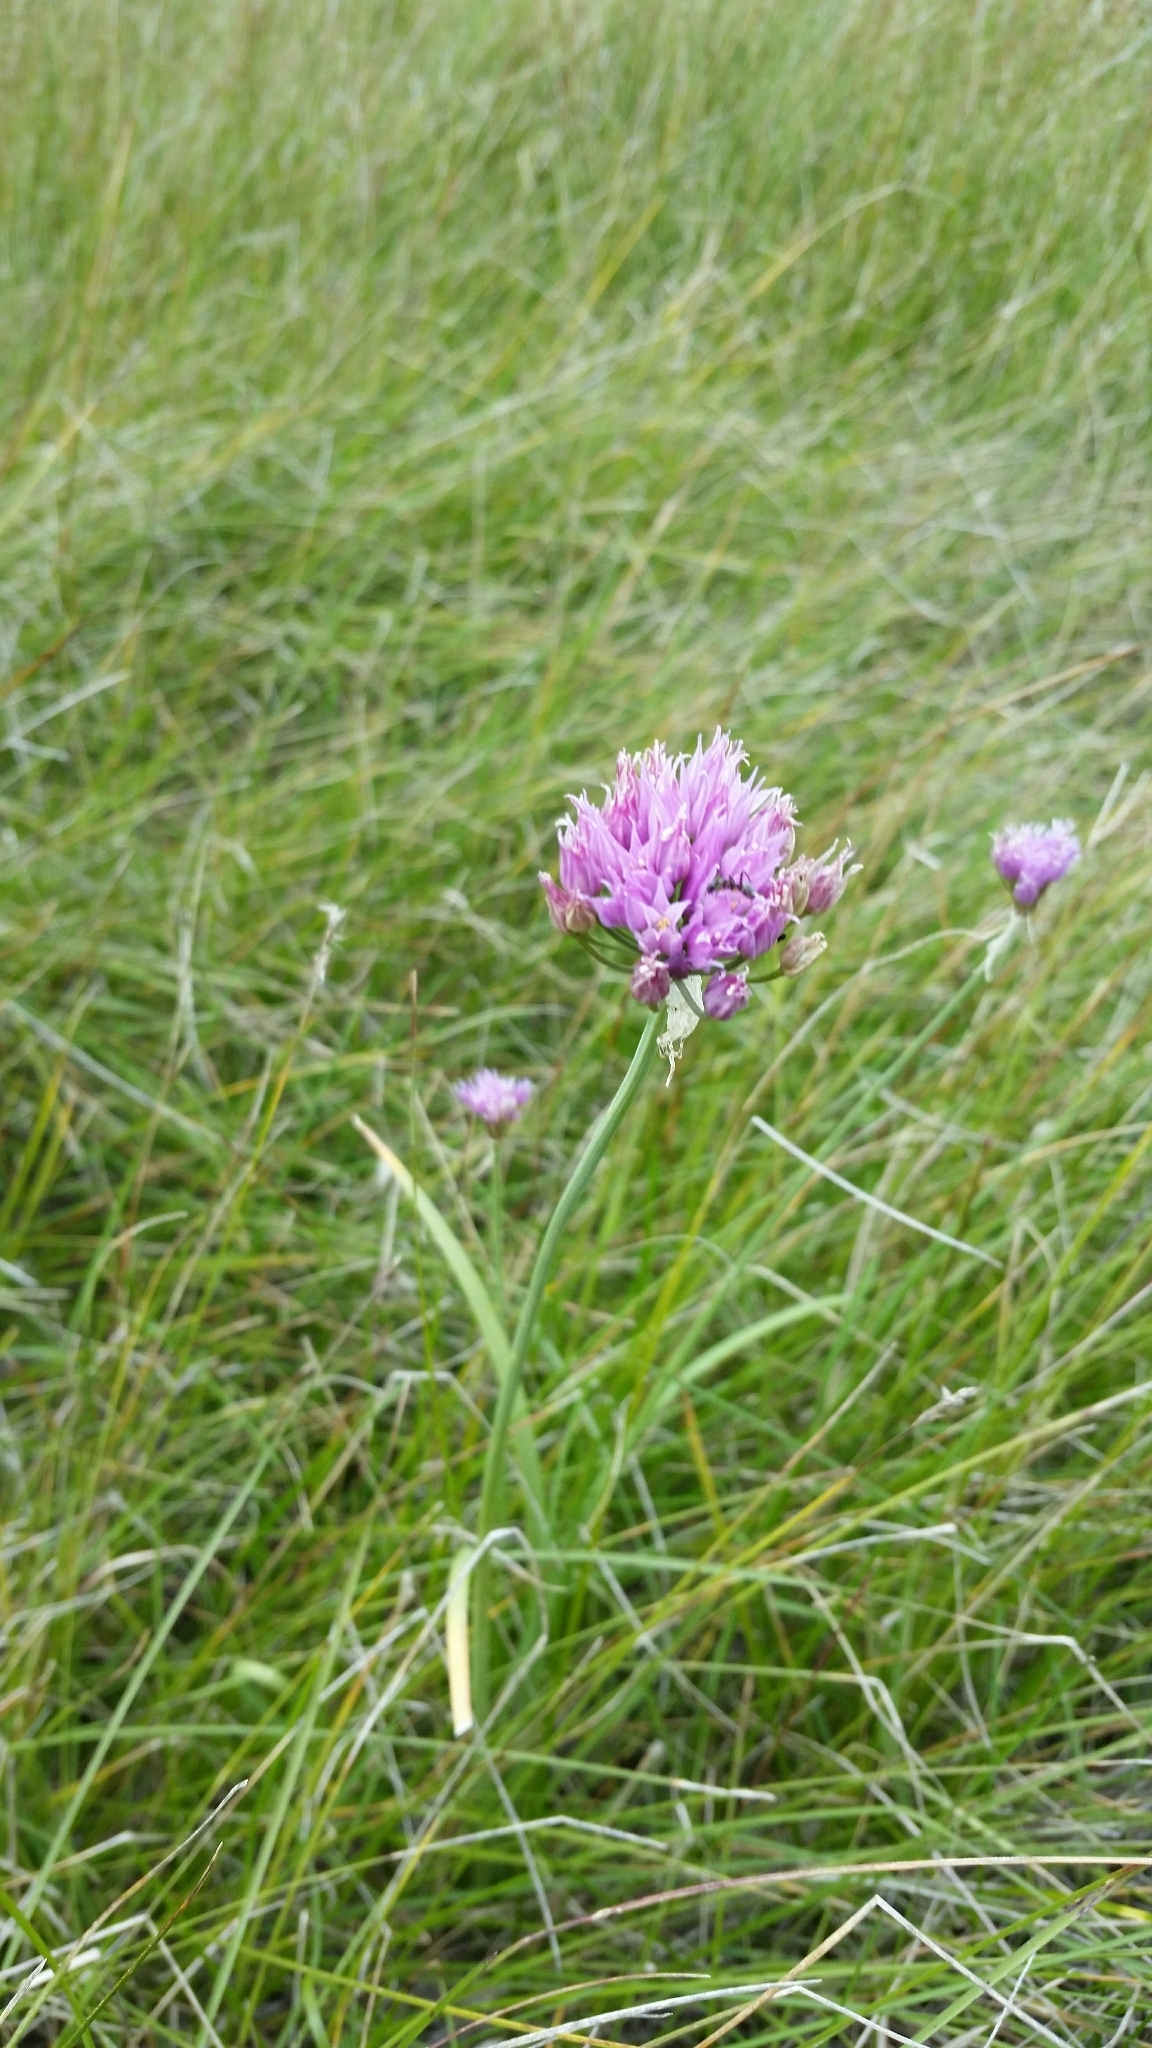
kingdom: Plantae
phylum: Tracheophyta
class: Liliopsida
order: Asparagales
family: Amaryllidaceae
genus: Allium
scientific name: Allium geyeri
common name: Geyer's onion
